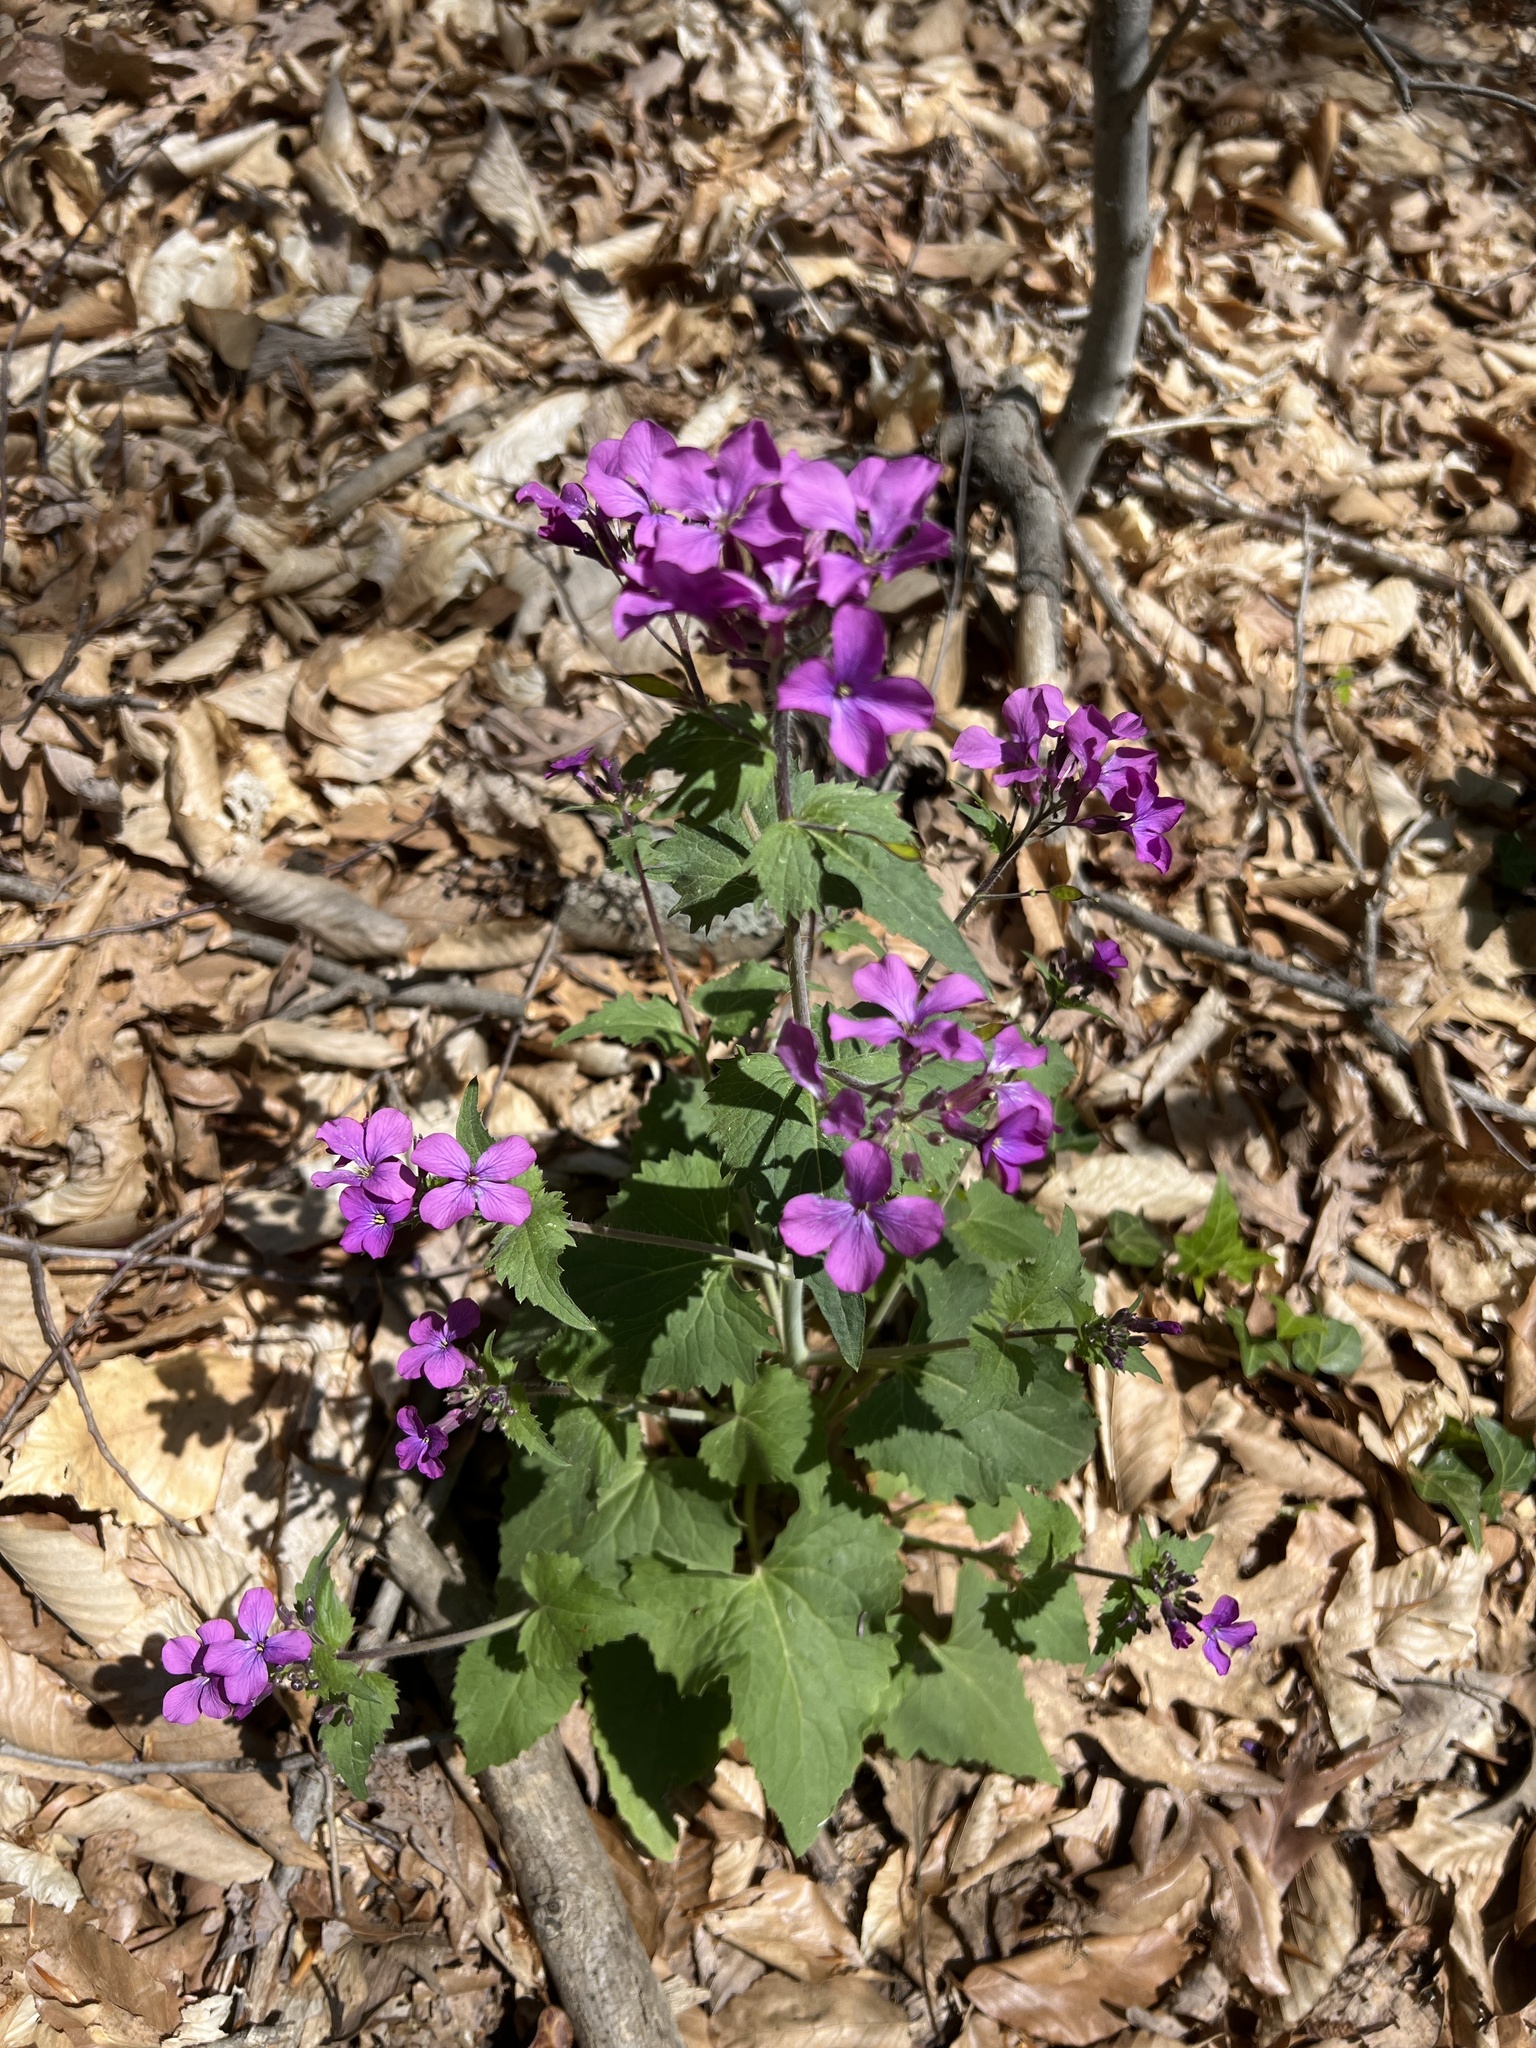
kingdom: Plantae
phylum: Tracheophyta
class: Magnoliopsida
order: Brassicales
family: Brassicaceae
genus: Lunaria
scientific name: Lunaria annua
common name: Honesty
